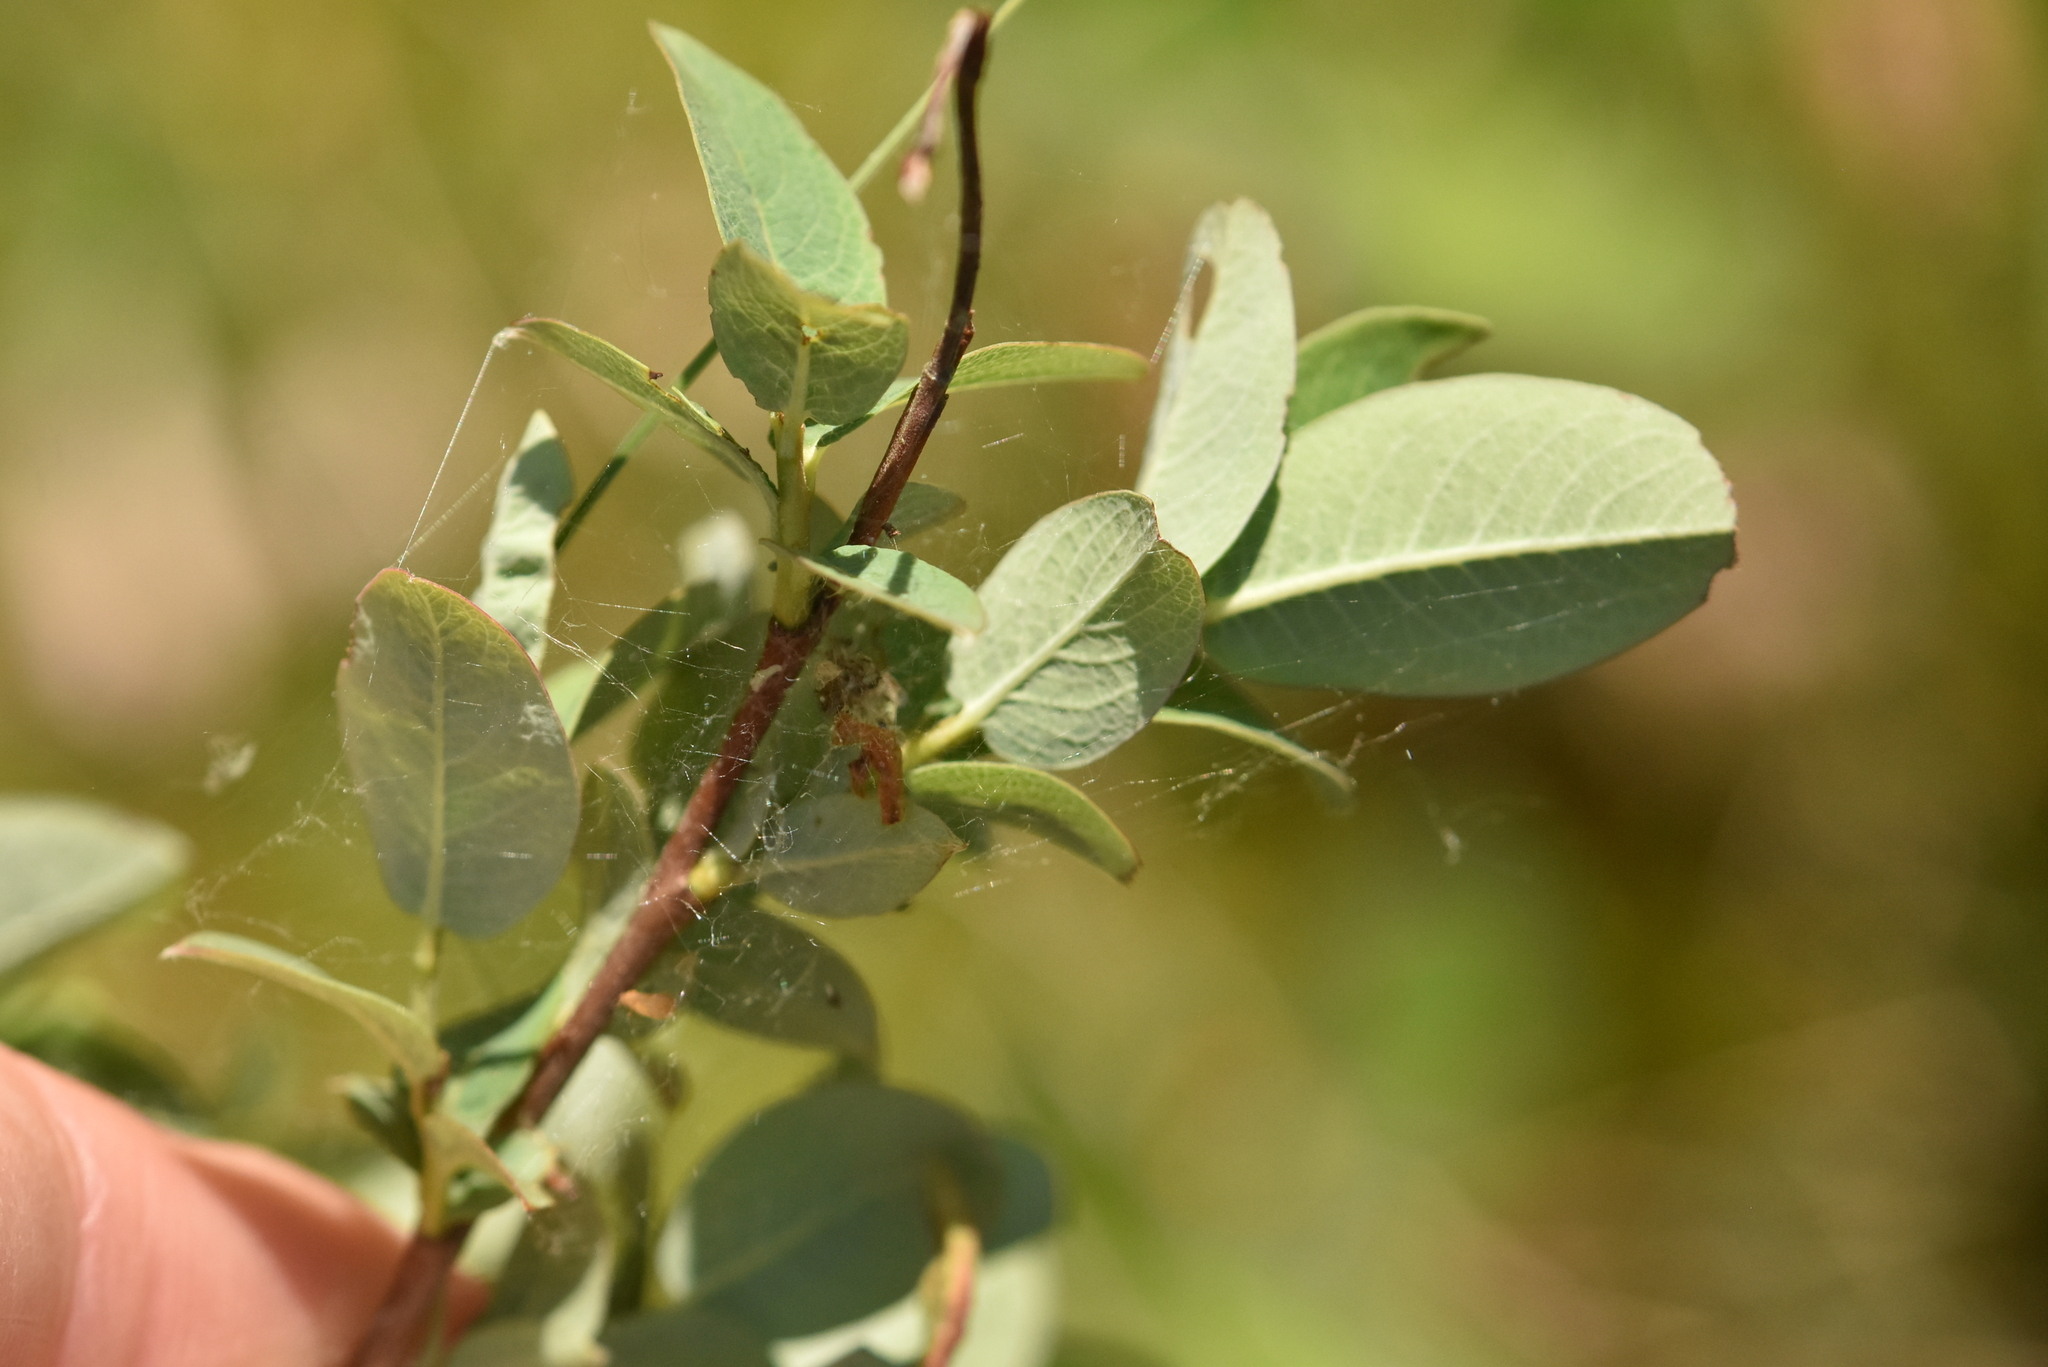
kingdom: Plantae
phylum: Tracheophyta
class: Magnoliopsida
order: Malpighiales
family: Salicaceae
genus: Salix
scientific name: Salix myrtilloides
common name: Myrtle-leaved willow
